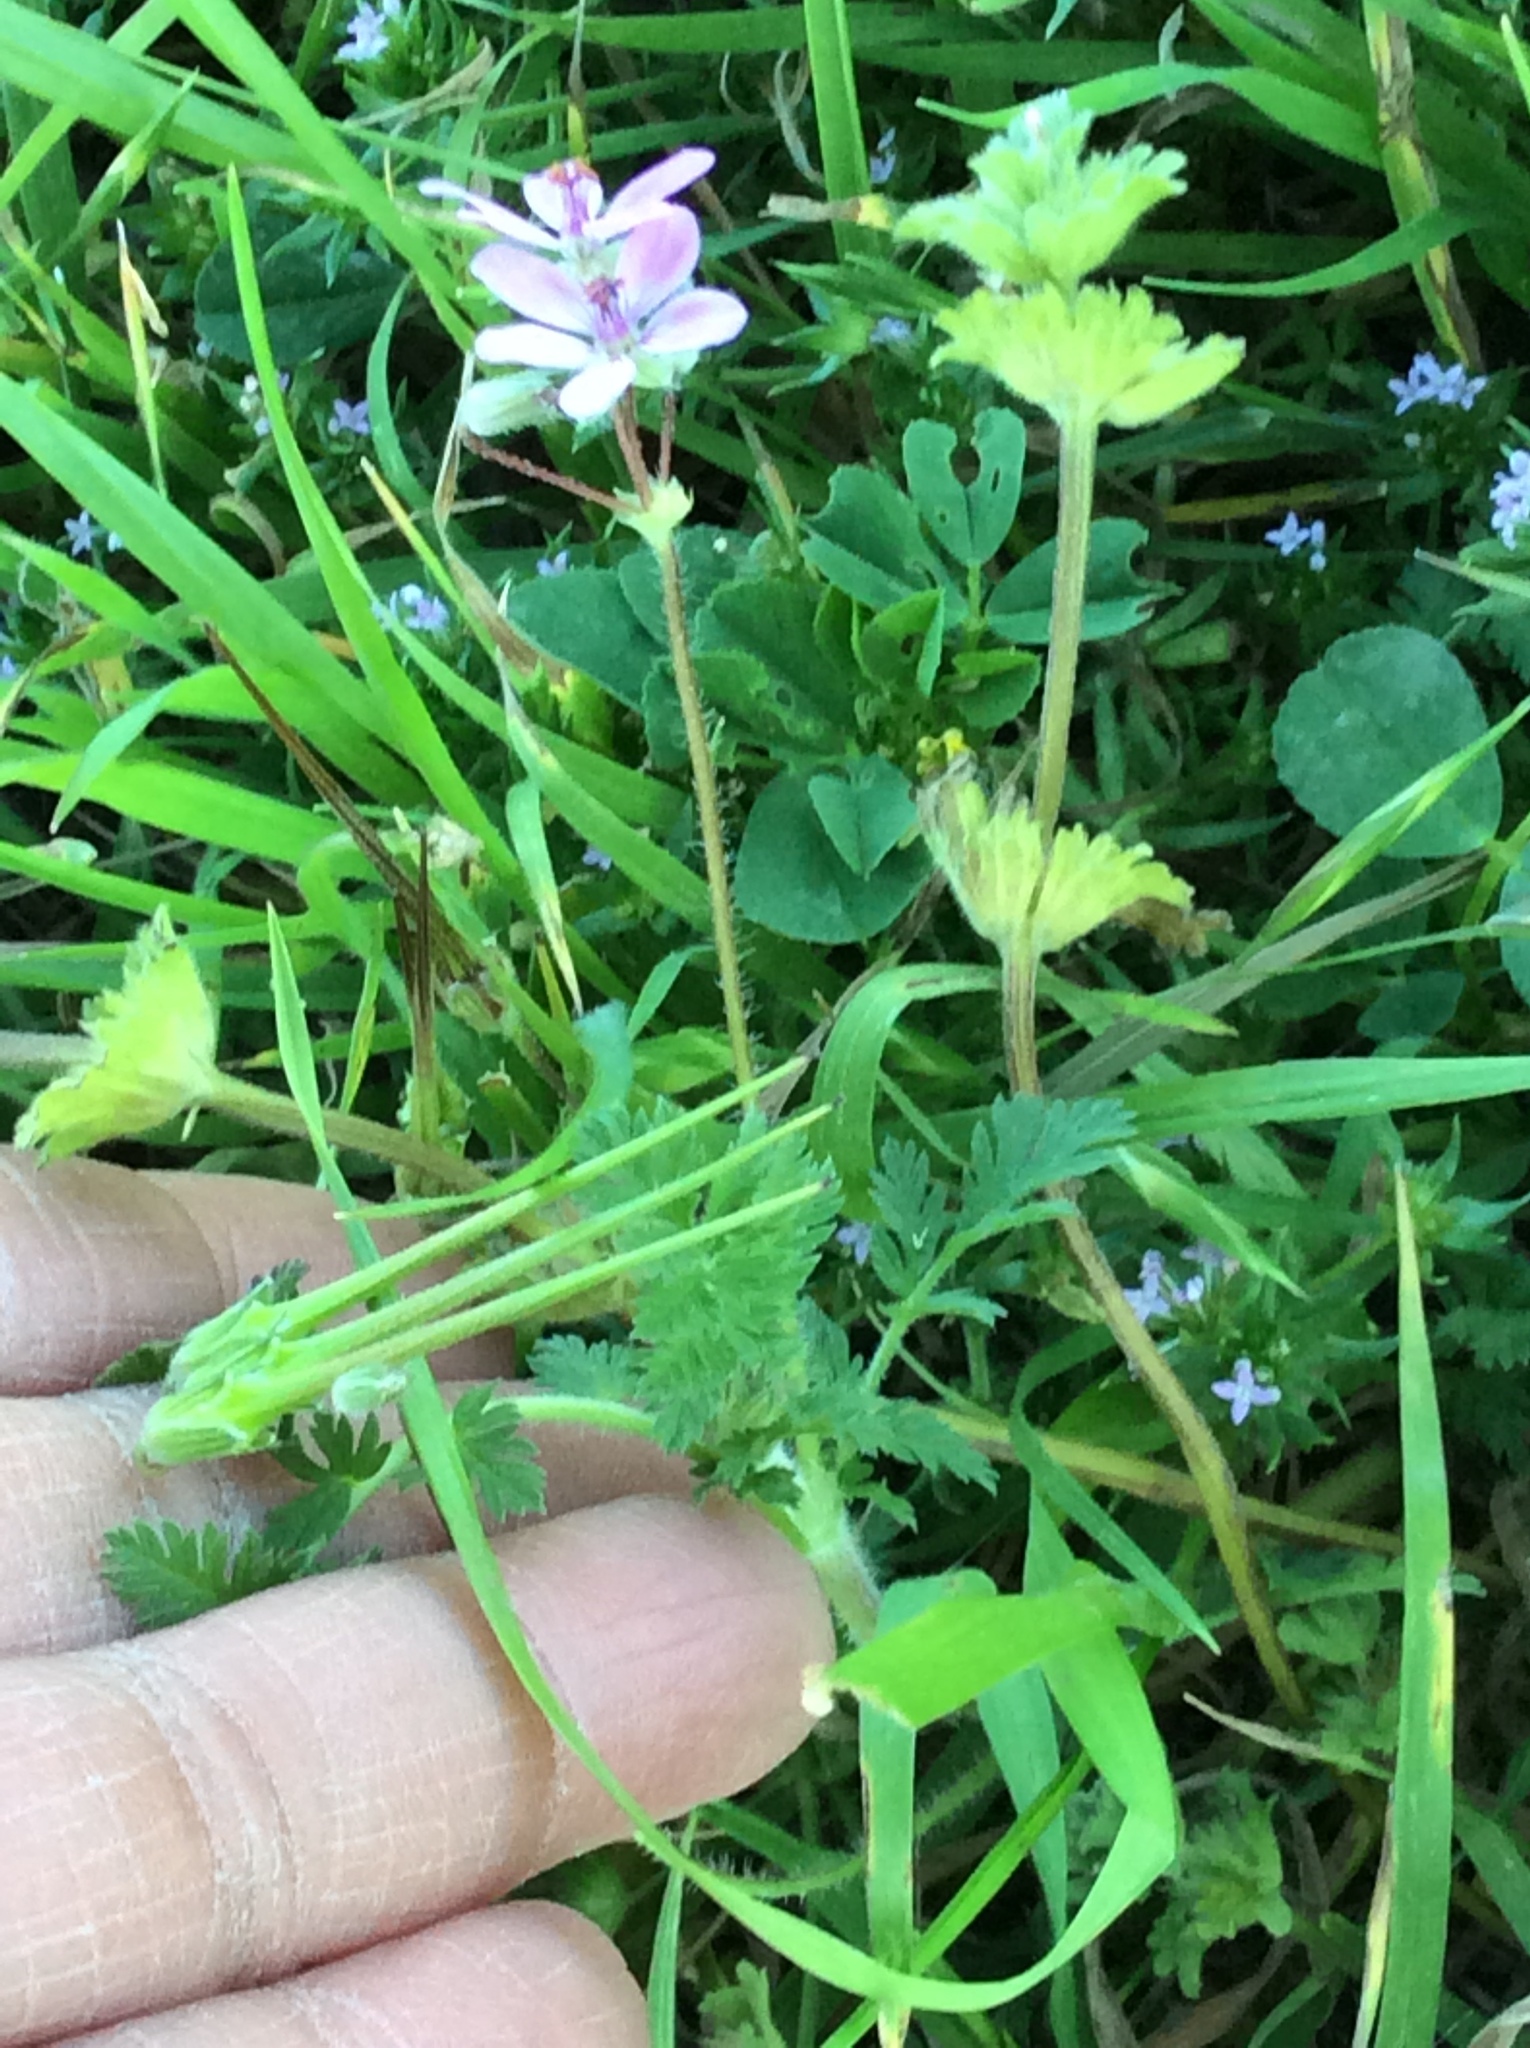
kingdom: Plantae
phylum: Tracheophyta
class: Magnoliopsida
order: Geraniales
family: Geraniaceae
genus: Erodium
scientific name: Erodium cicutarium
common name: Common stork's-bill
